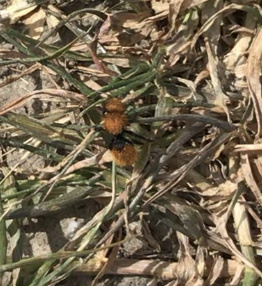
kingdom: Animalia
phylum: Arthropoda
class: Insecta
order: Hymenoptera
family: Mutillidae
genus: Dasymutilla
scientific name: Dasymutilla
